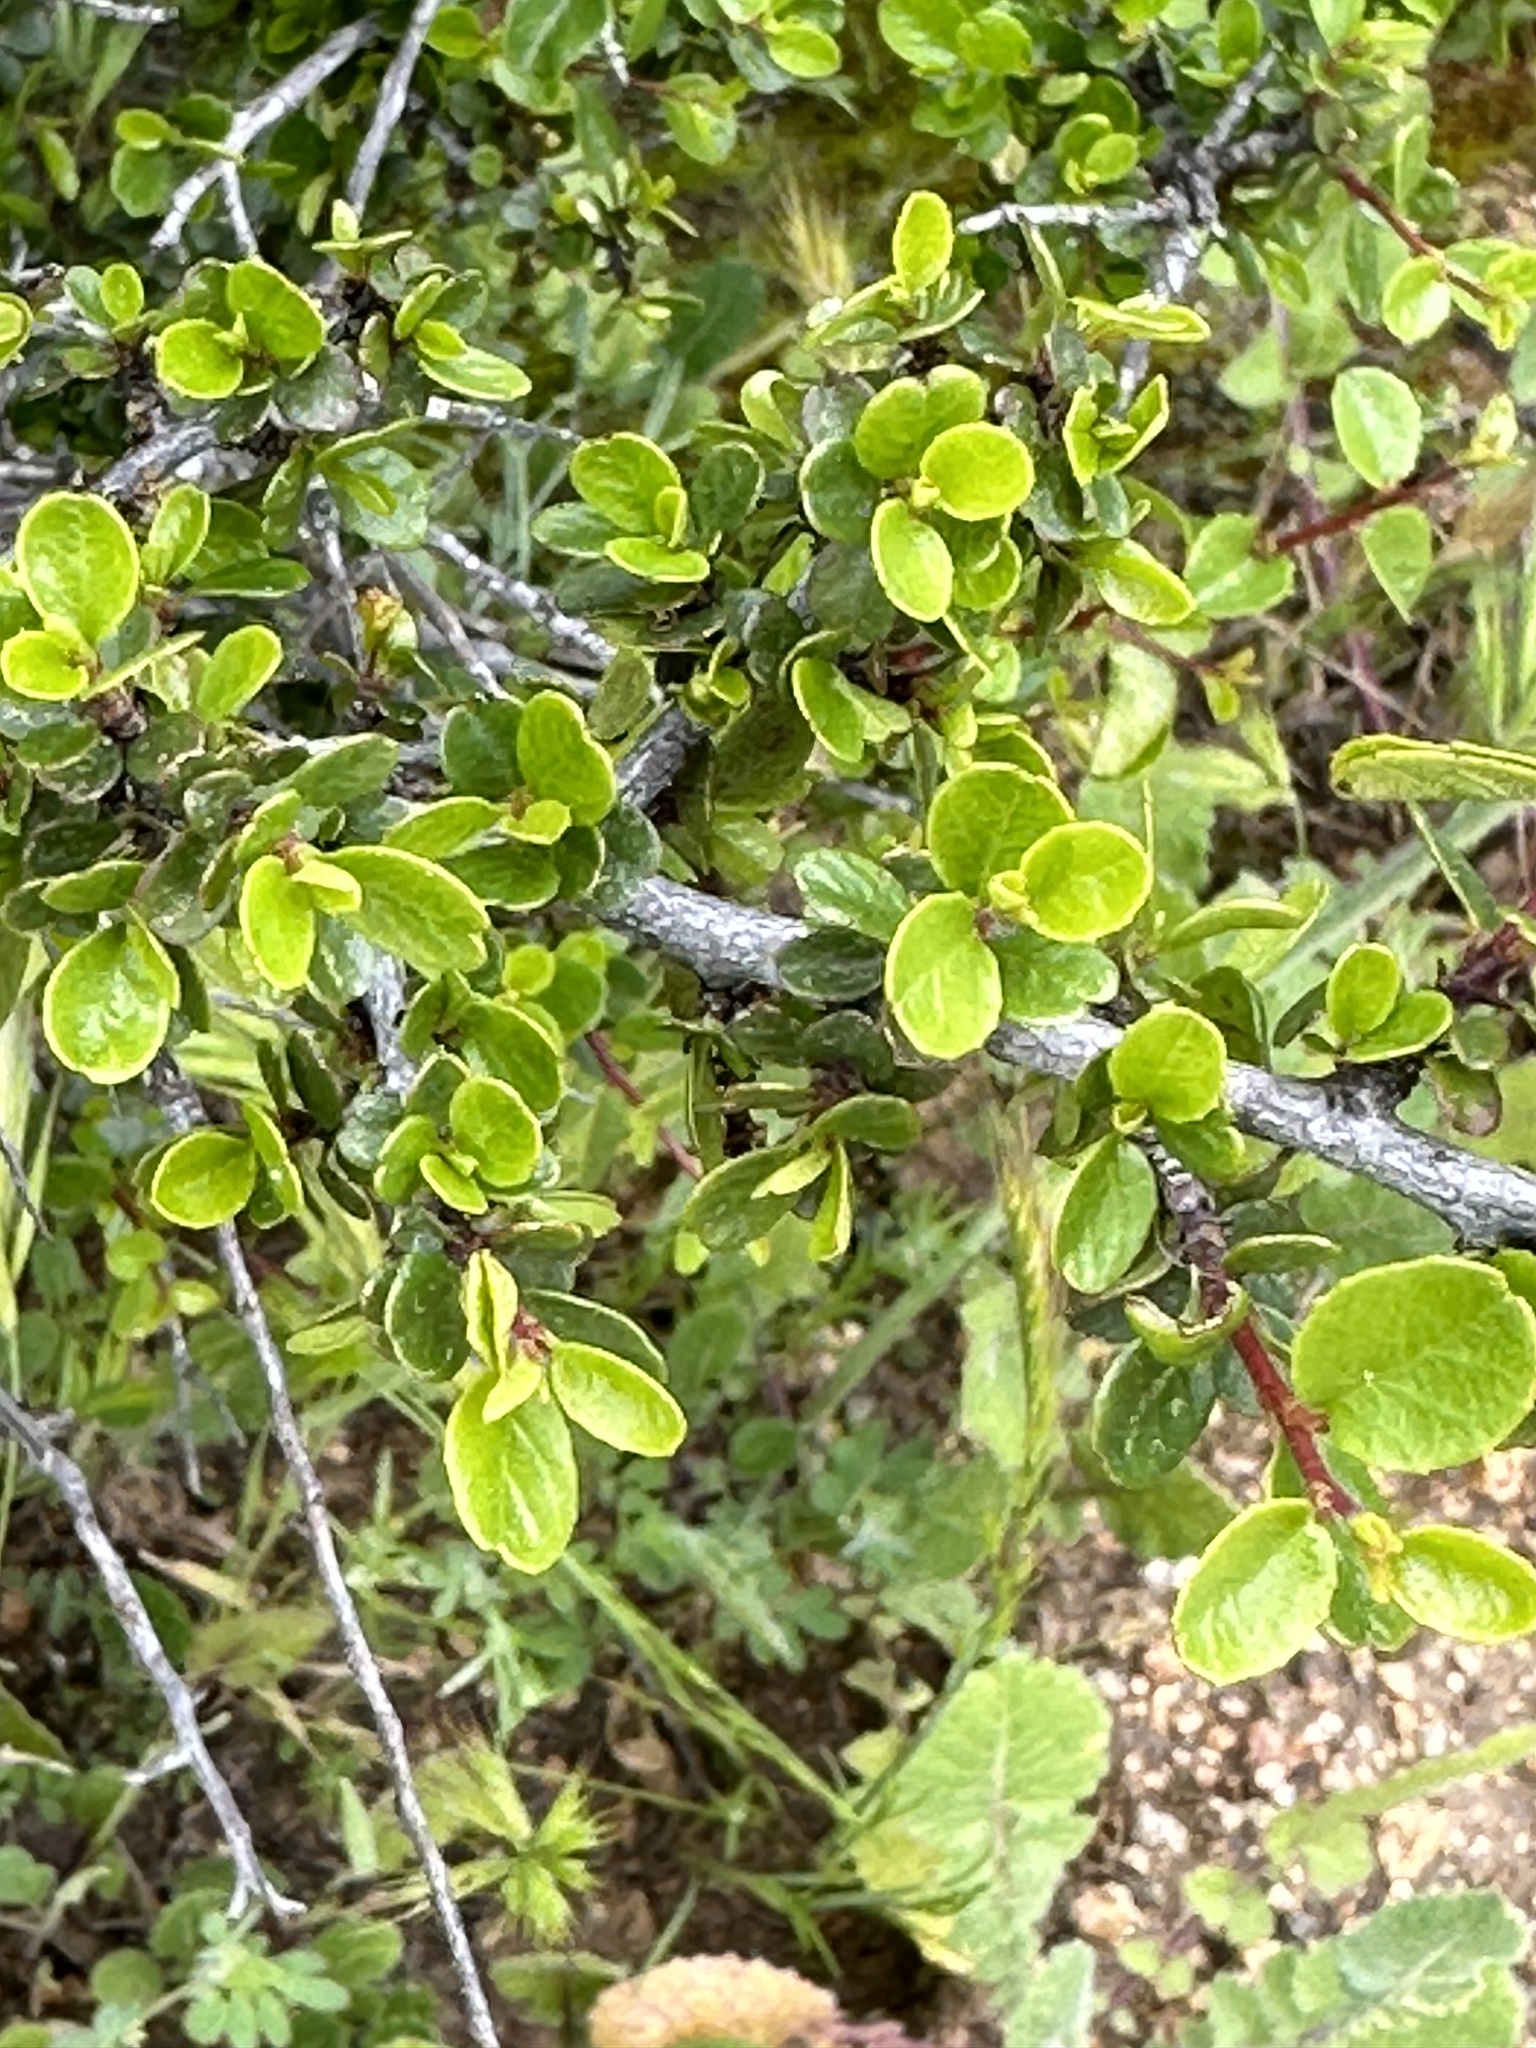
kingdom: Plantae
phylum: Tracheophyta
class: Magnoliopsida
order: Rosales
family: Rhamnaceae
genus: Endotropis
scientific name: Endotropis crocea
